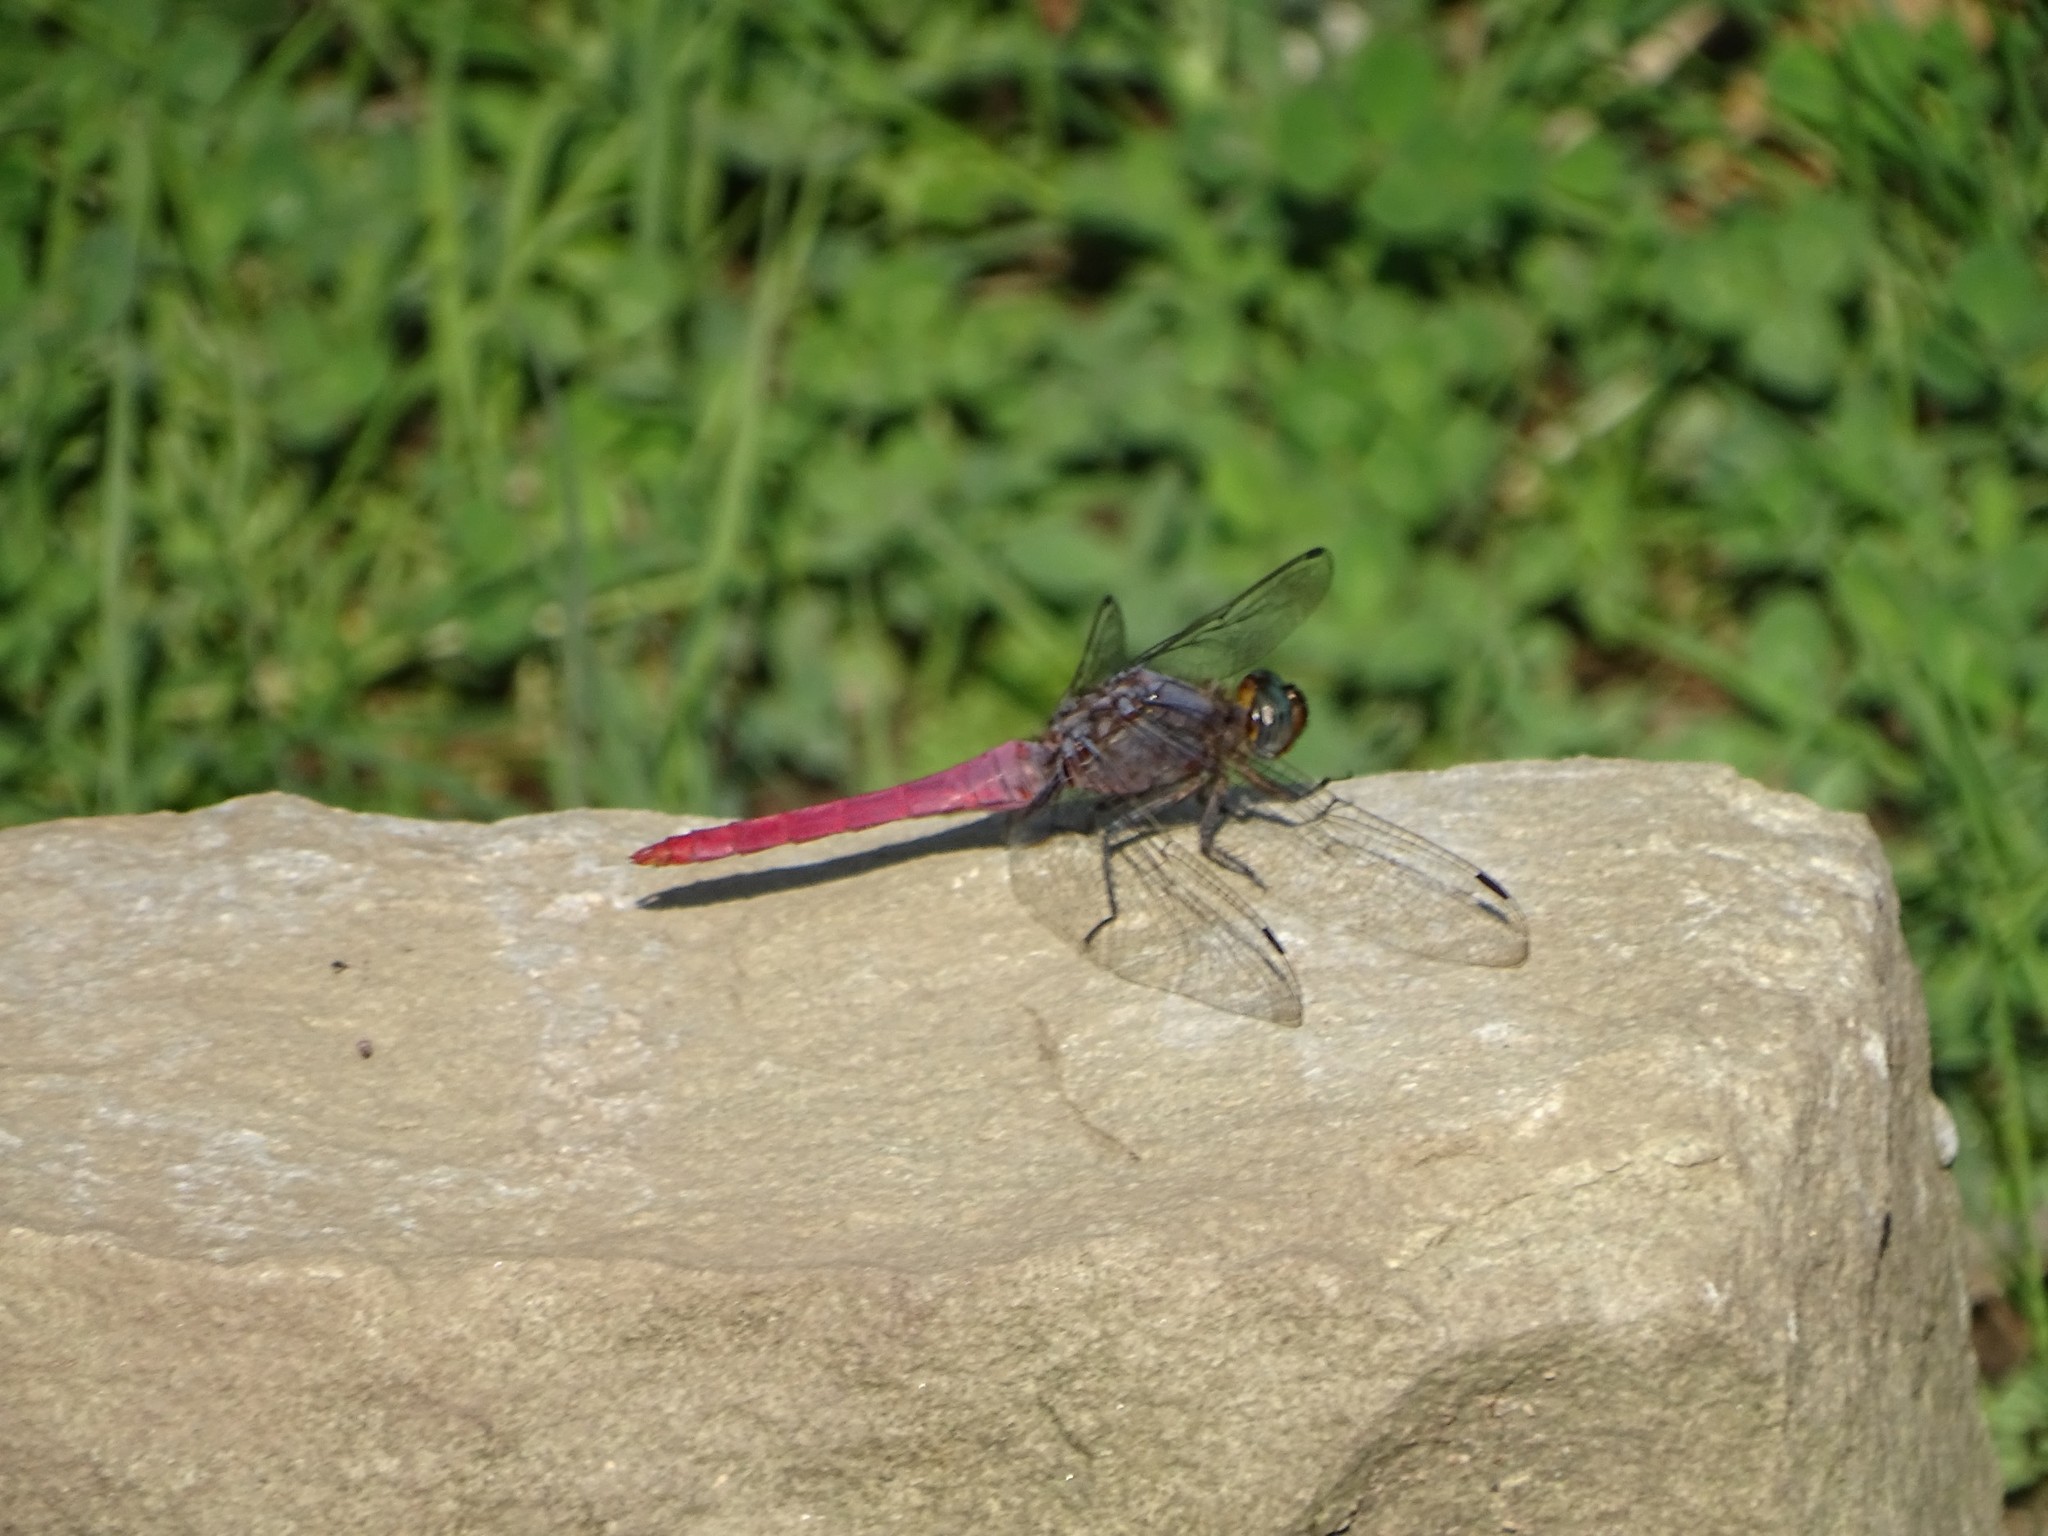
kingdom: Animalia
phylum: Arthropoda
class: Insecta
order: Odonata
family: Libellulidae
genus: Orthetrum
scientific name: Orthetrum pruinosum
